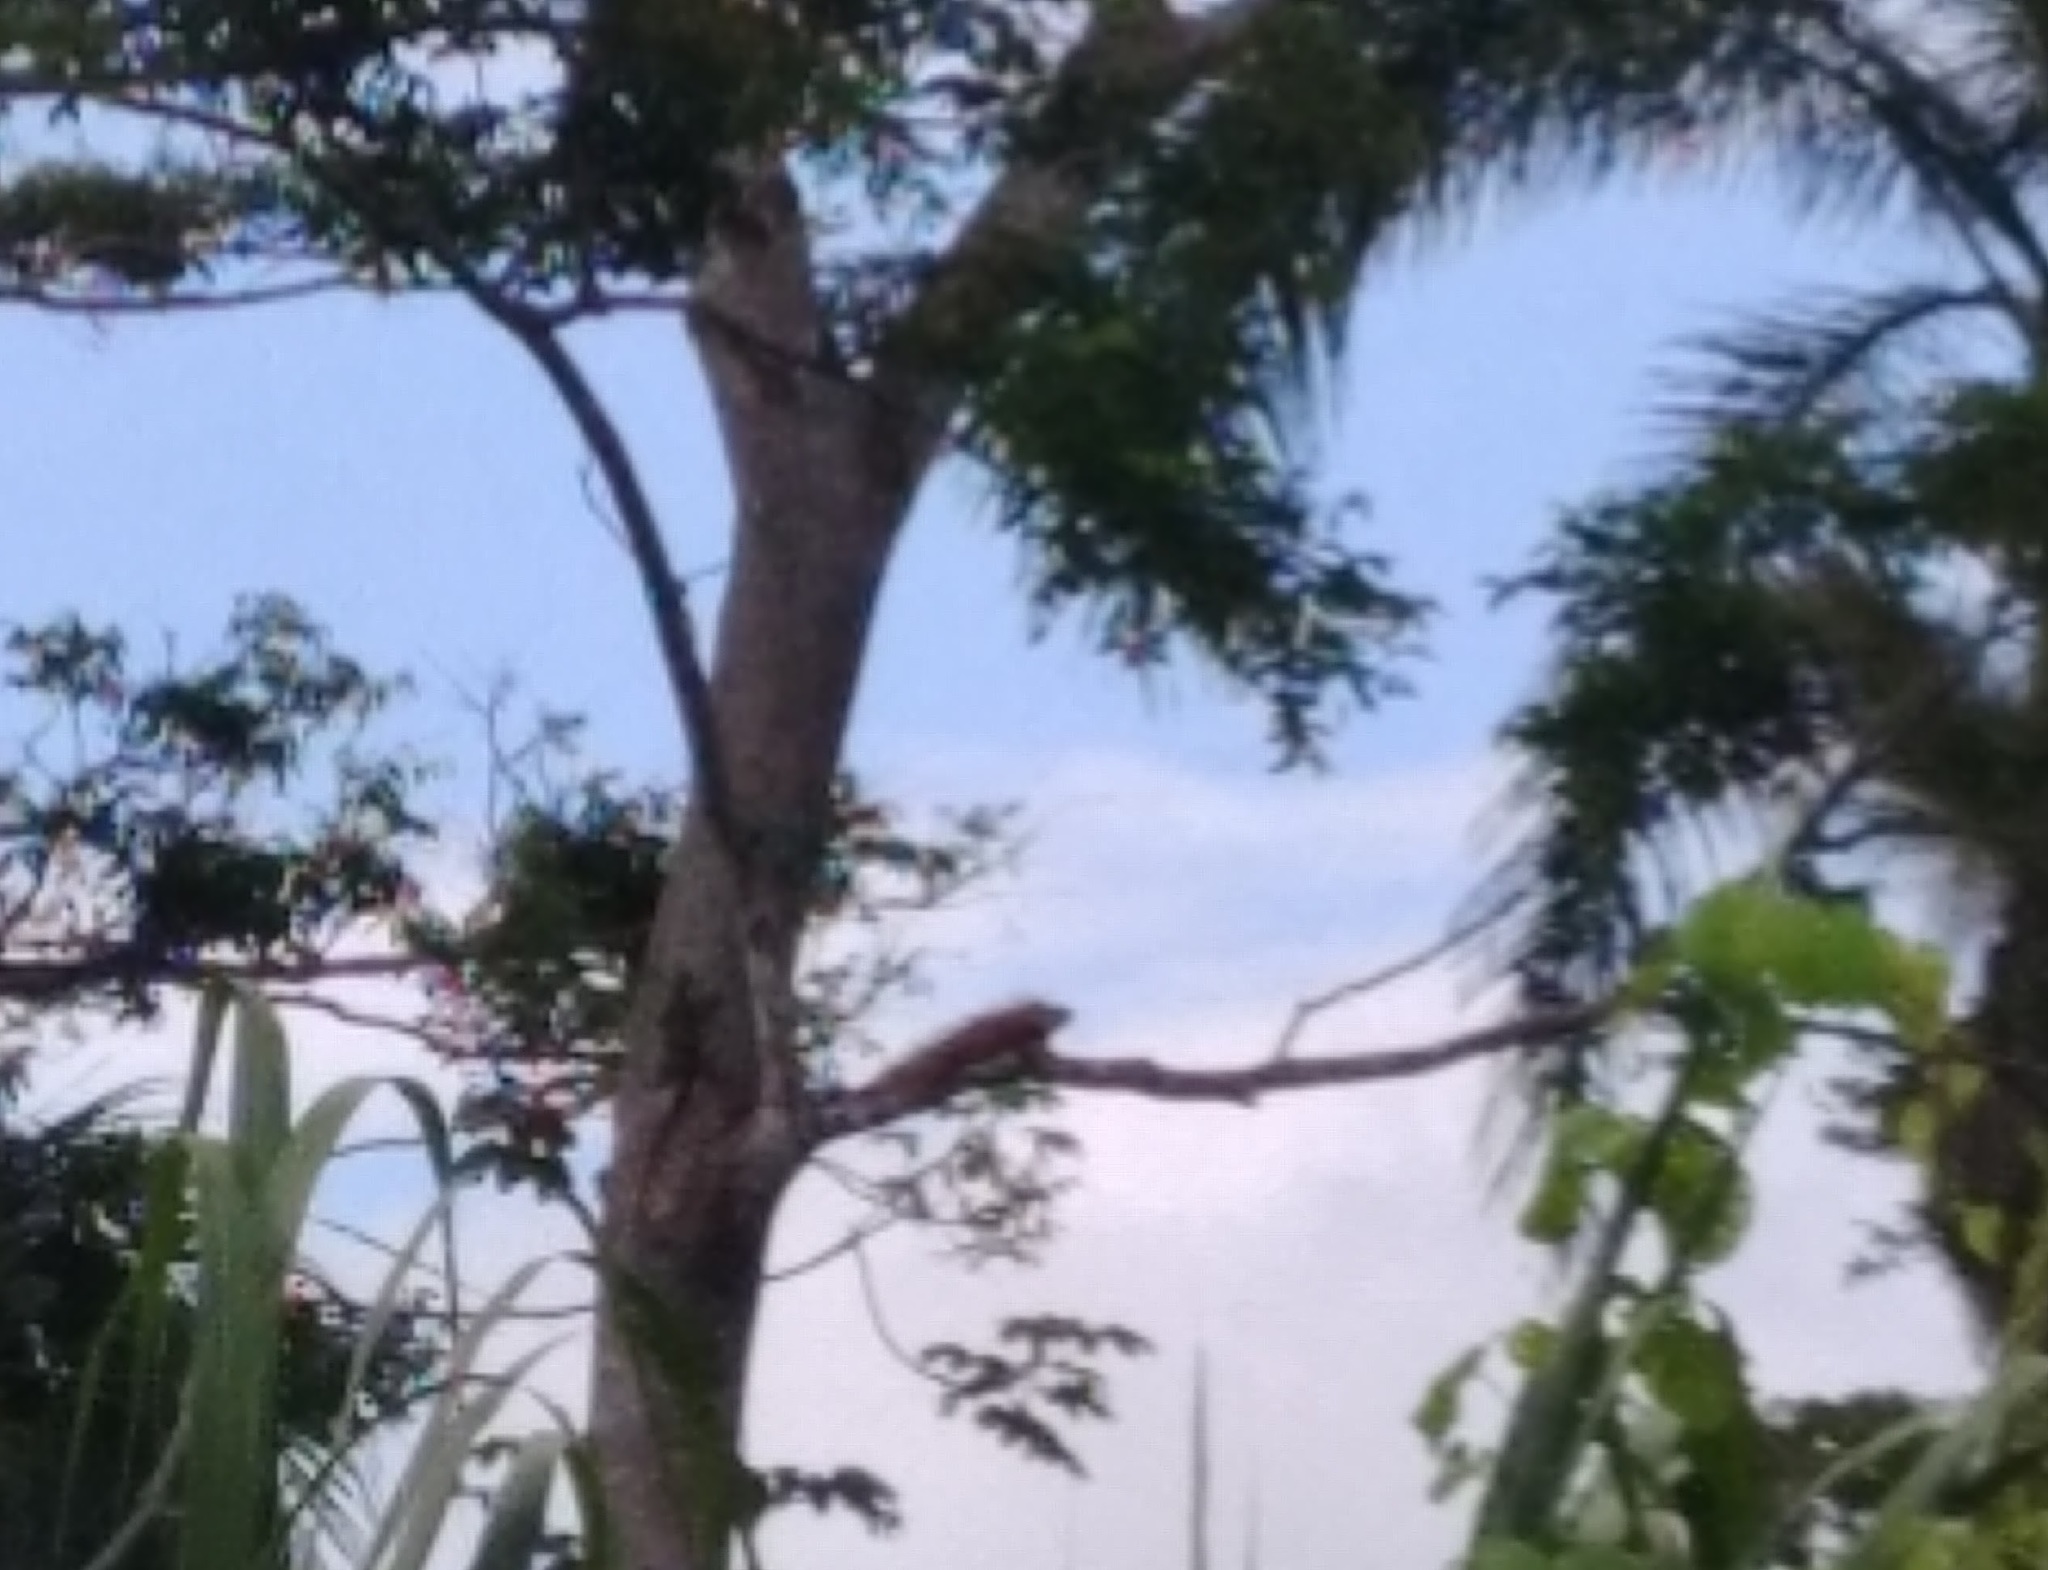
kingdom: Animalia
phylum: Chordata
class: Squamata
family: Iguanidae
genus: Iguana
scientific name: Iguana iguana
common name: Green iguana
